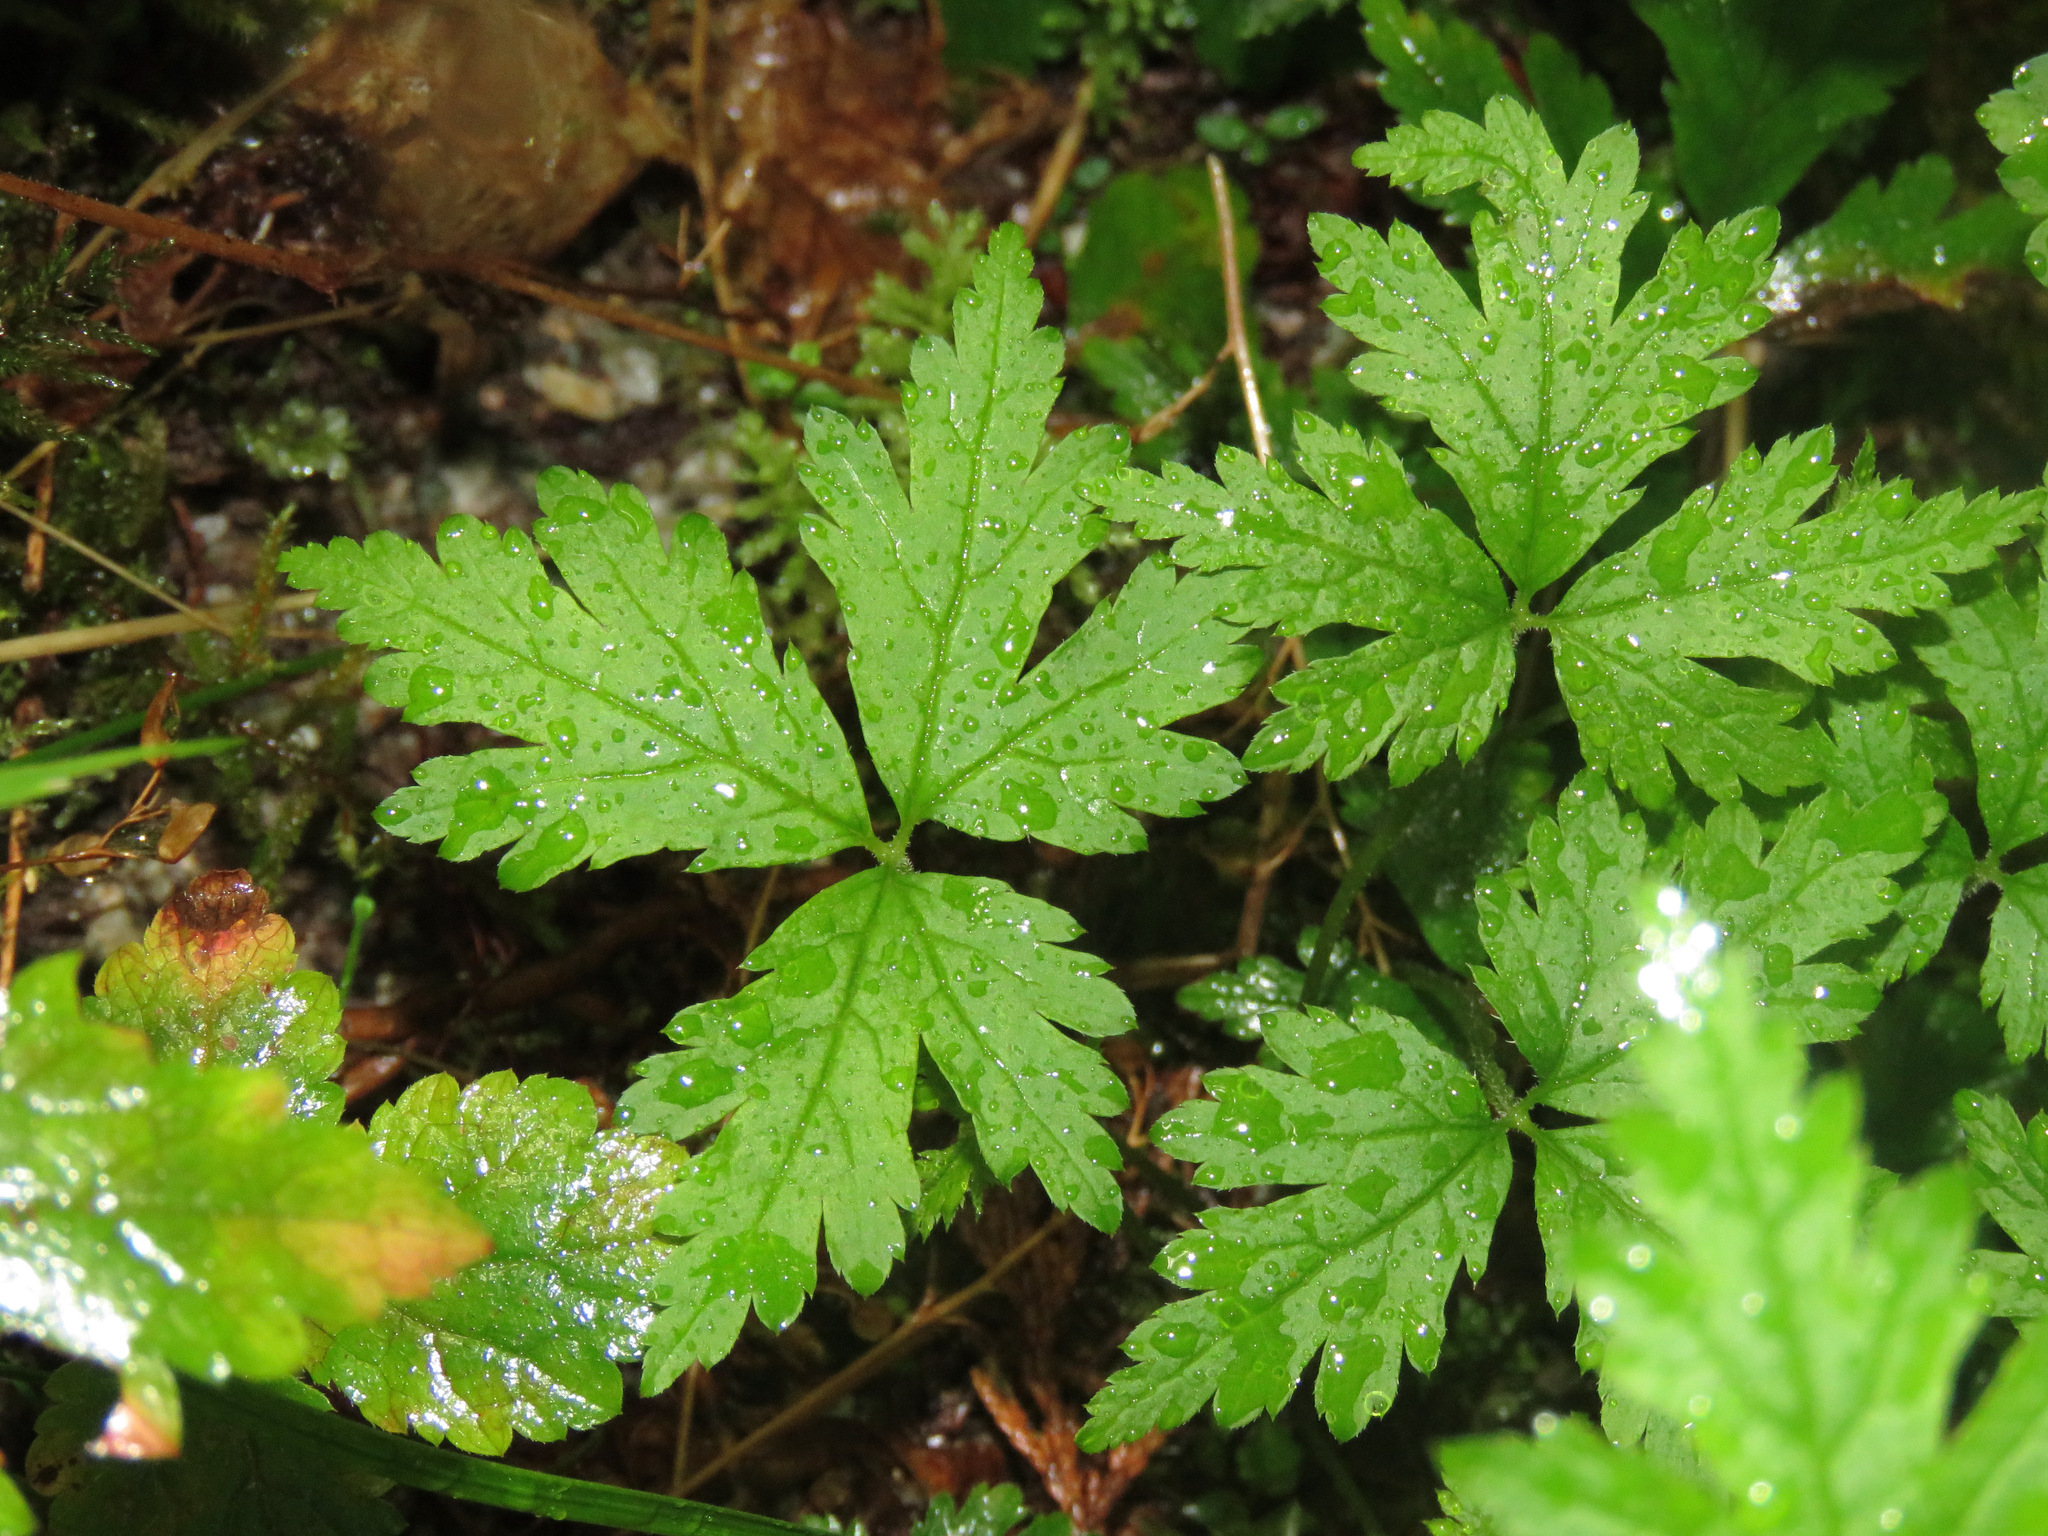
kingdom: Plantae
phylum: Tracheophyta
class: Magnoliopsida
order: Saxifragales
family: Saxifragaceae
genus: Tiarella
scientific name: Tiarella trifoliata
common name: Sugar-scoop
